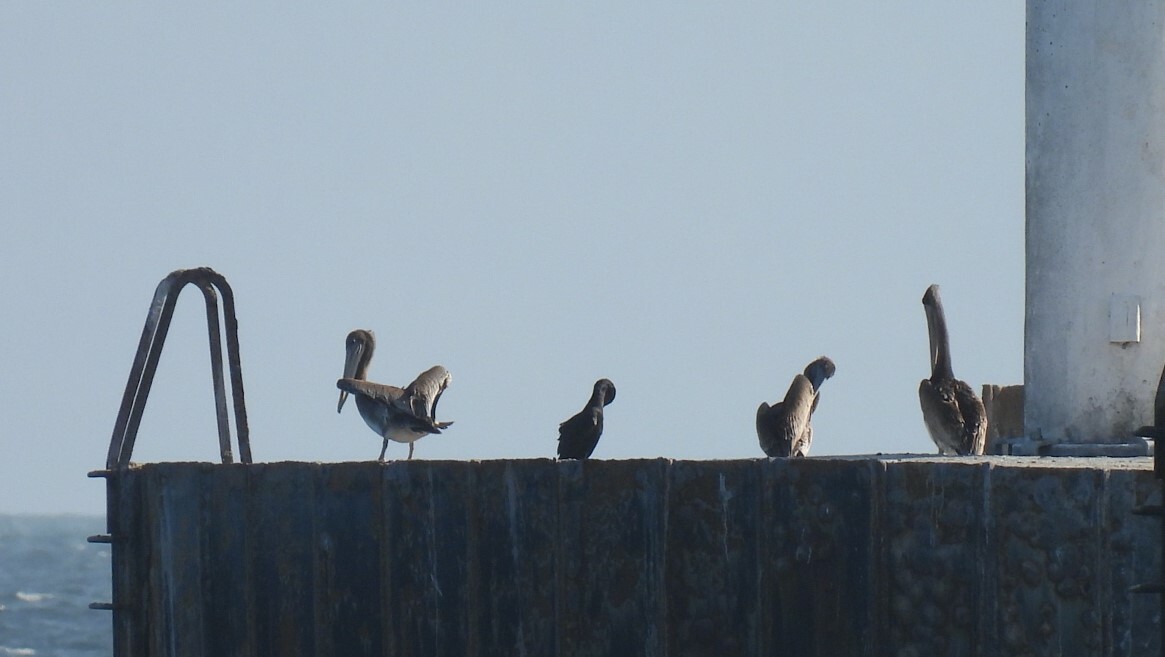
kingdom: Animalia
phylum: Chordata
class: Aves
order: Pelecaniformes
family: Pelecanidae
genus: Pelecanus
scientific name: Pelecanus occidentalis
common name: Brown pelican
